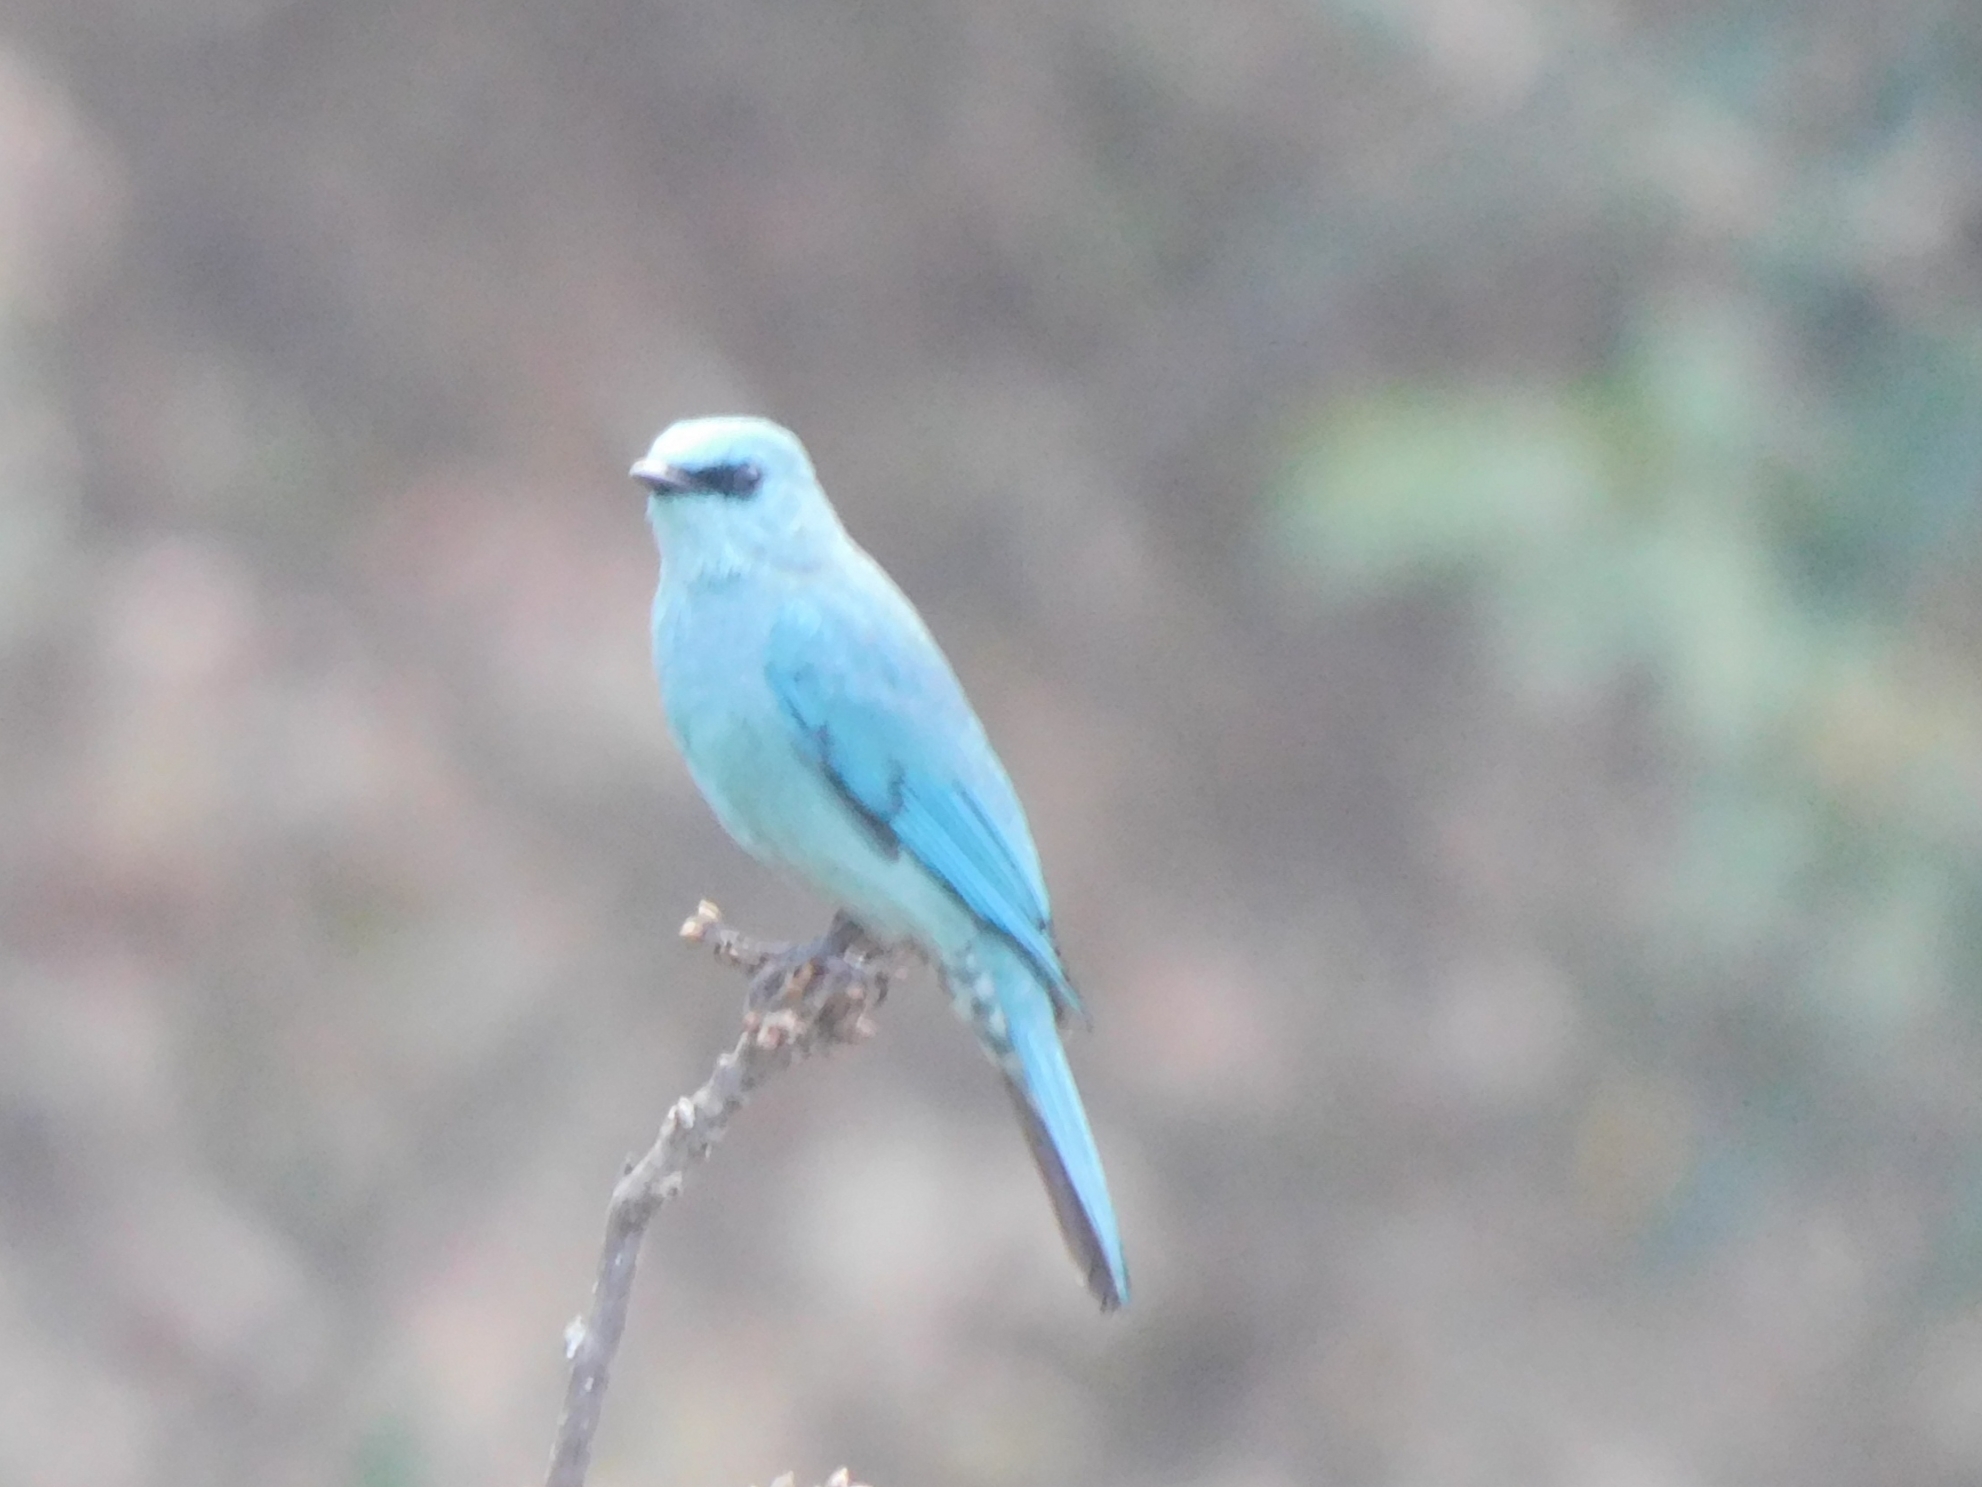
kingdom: Animalia
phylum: Chordata
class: Aves
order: Passeriformes
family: Muscicapidae
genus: Eumyias
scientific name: Eumyias thalassinus
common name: Verditer flycatcher
